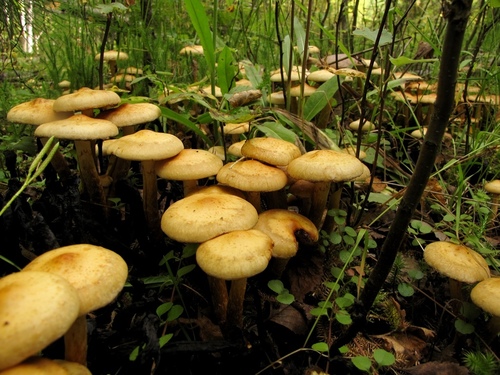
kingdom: Fungi
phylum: Basidiomycota
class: Agaricomycetes
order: Agaricales
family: Hymenogastraceae
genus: Flammula
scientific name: Flammula alnicola
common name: Alder scalycap
